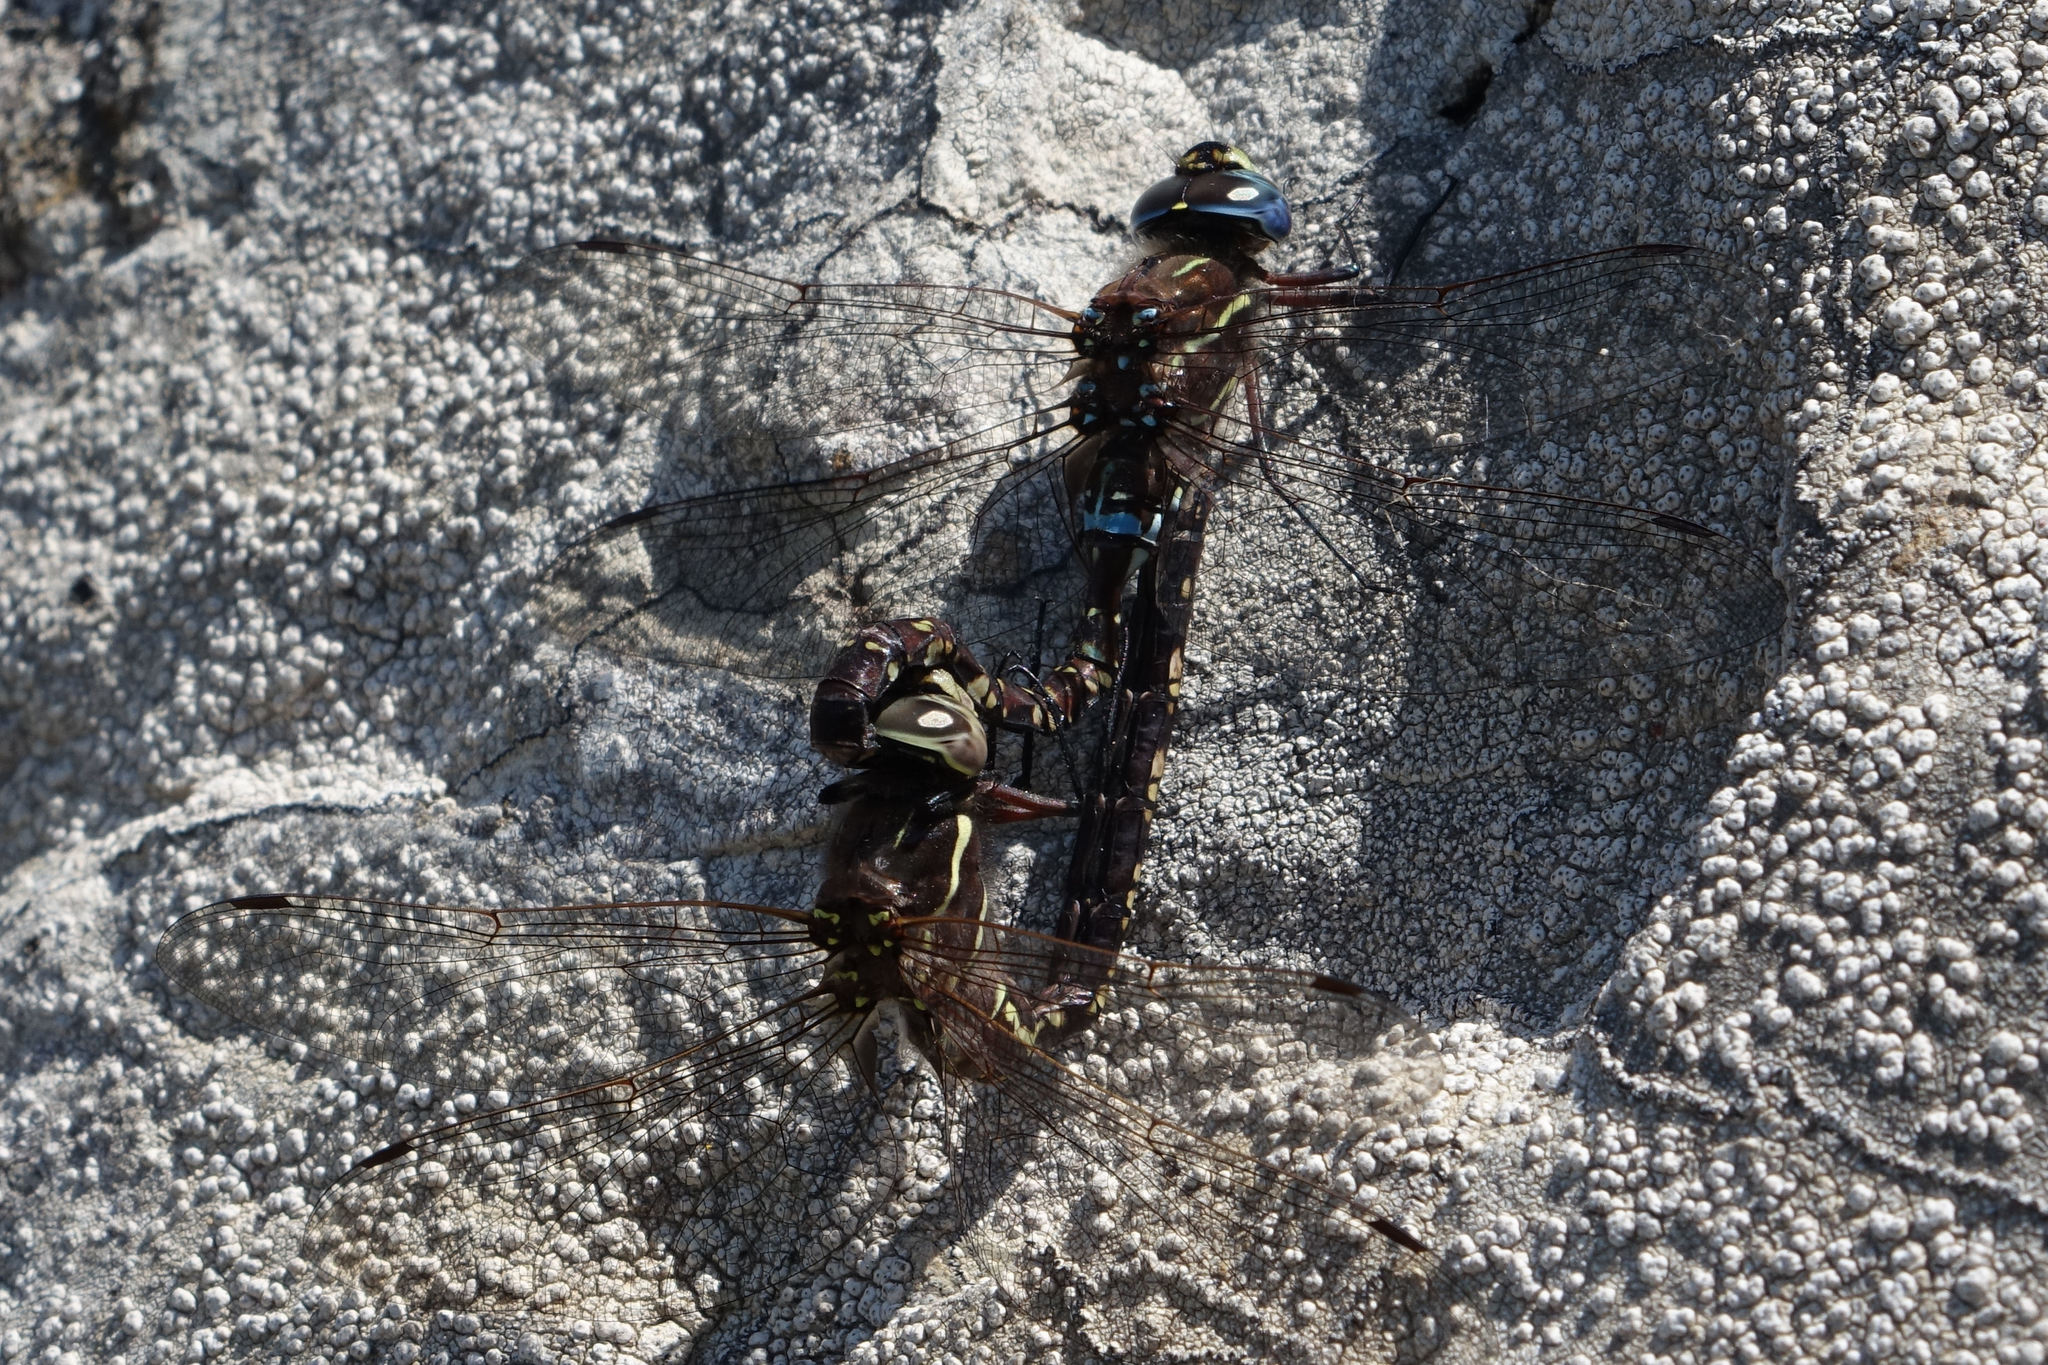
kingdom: Animalia
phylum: Arthropoda
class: Insecta
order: Odonata
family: Aeshnidae
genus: Aeshna
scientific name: Aeshna brevistyla
